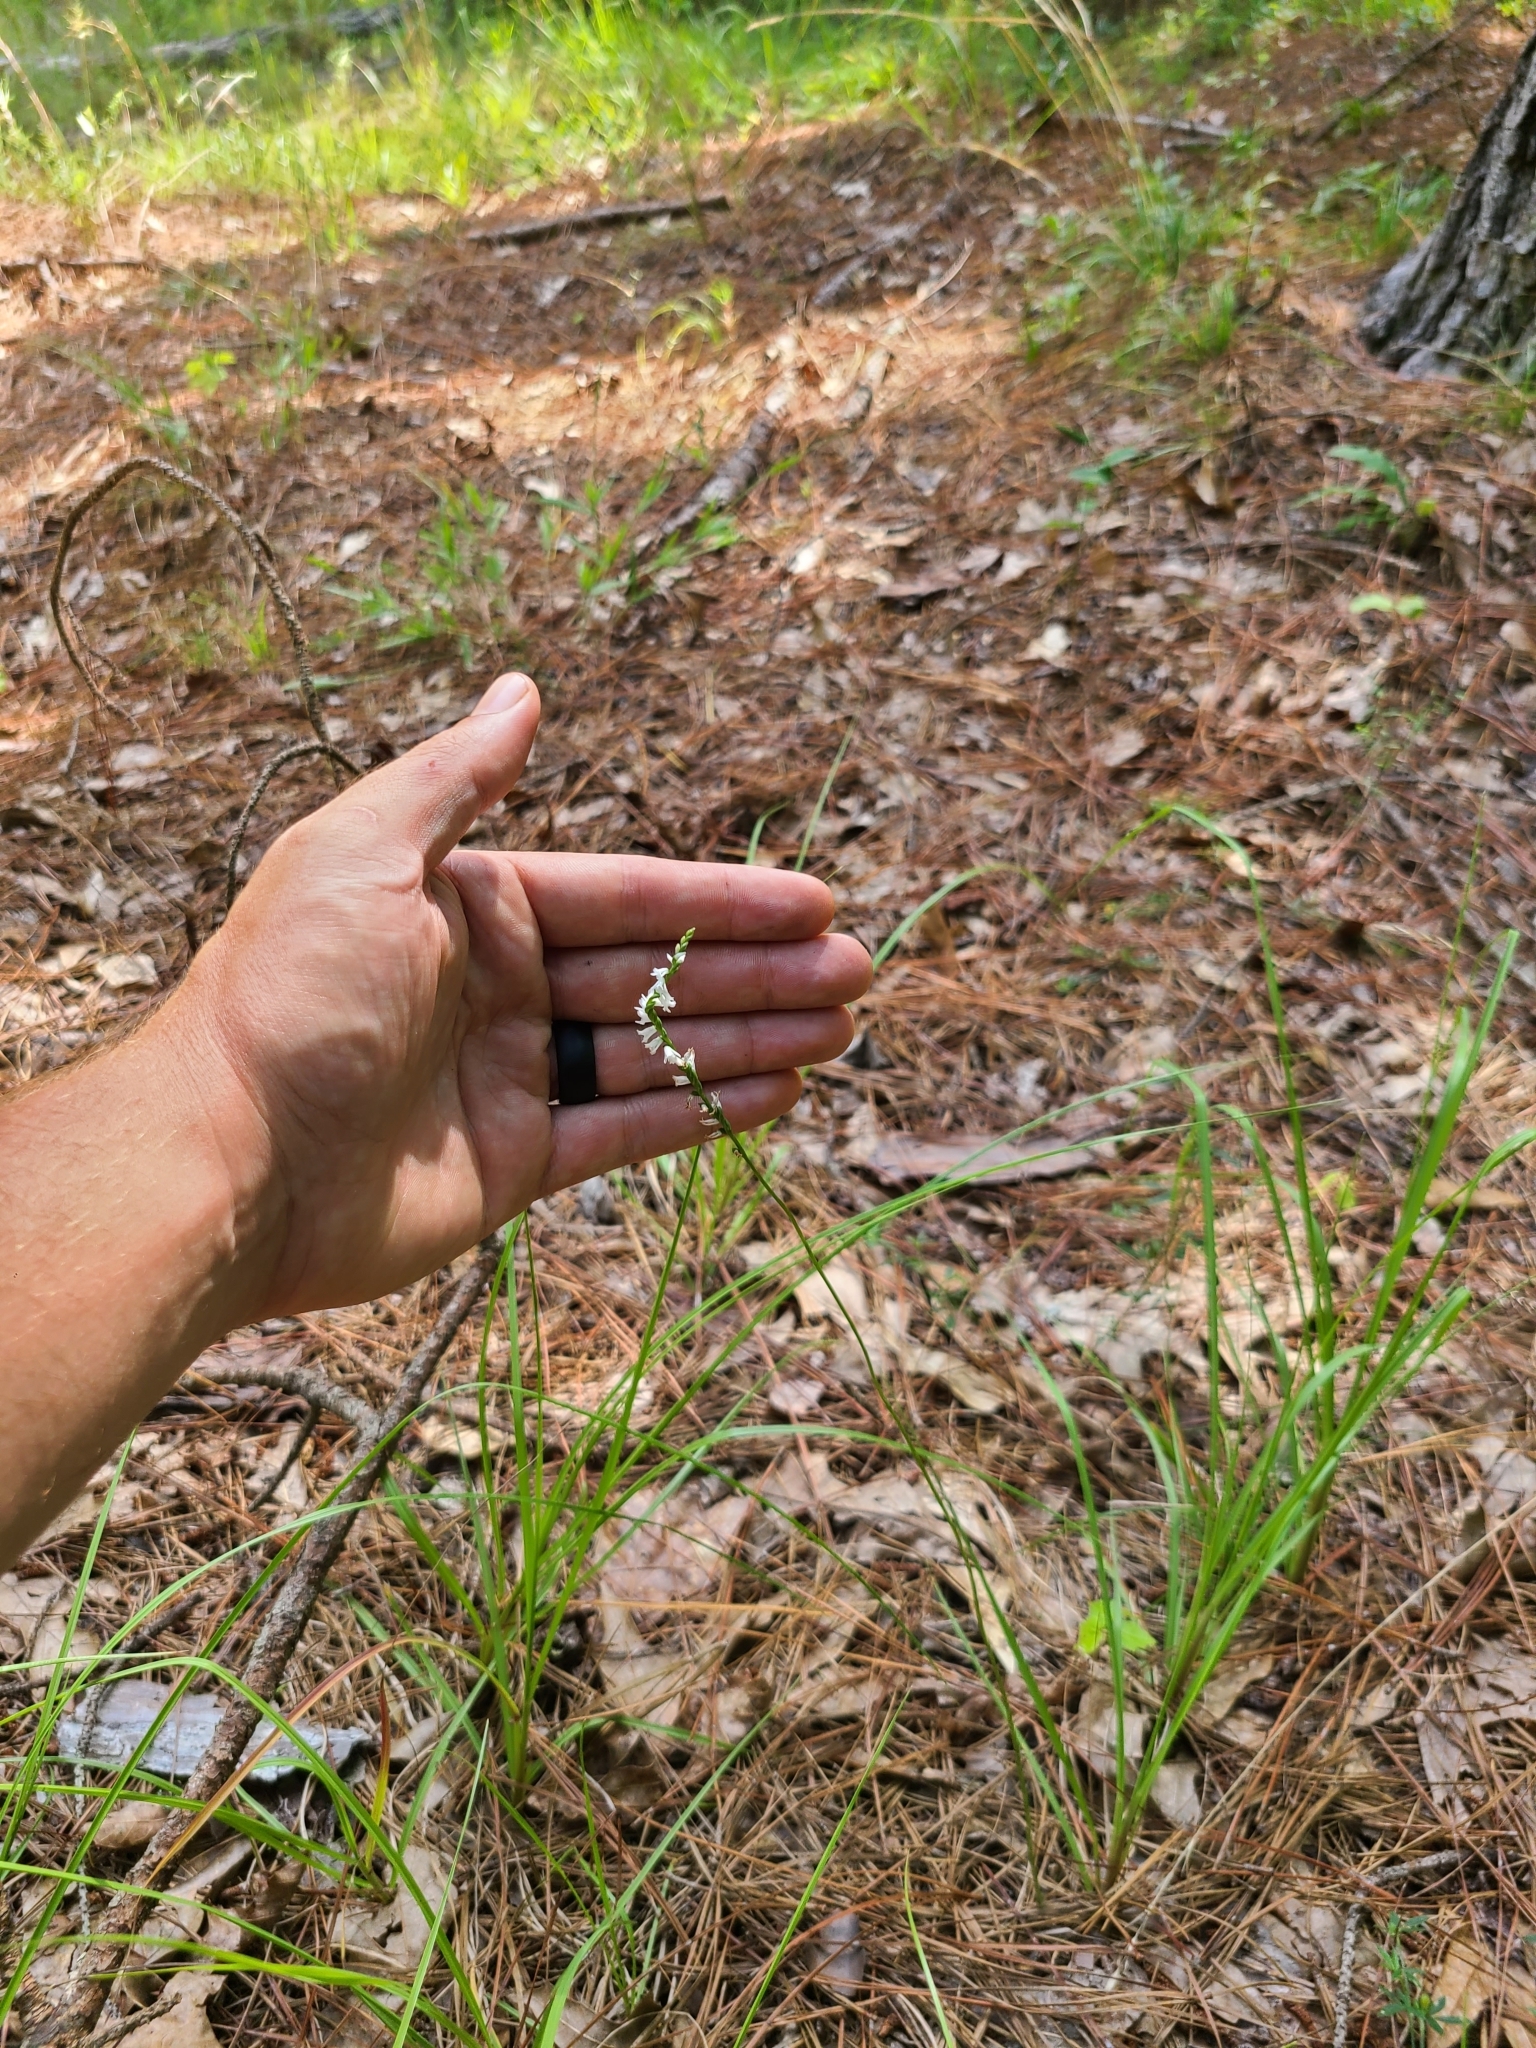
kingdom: Plantae
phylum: Tracheophyta
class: Liliopsida
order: Asparagales
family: Orchidaceae
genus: Spiranthes
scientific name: Spiranthes tuberosa
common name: Little ladies'-tresses
